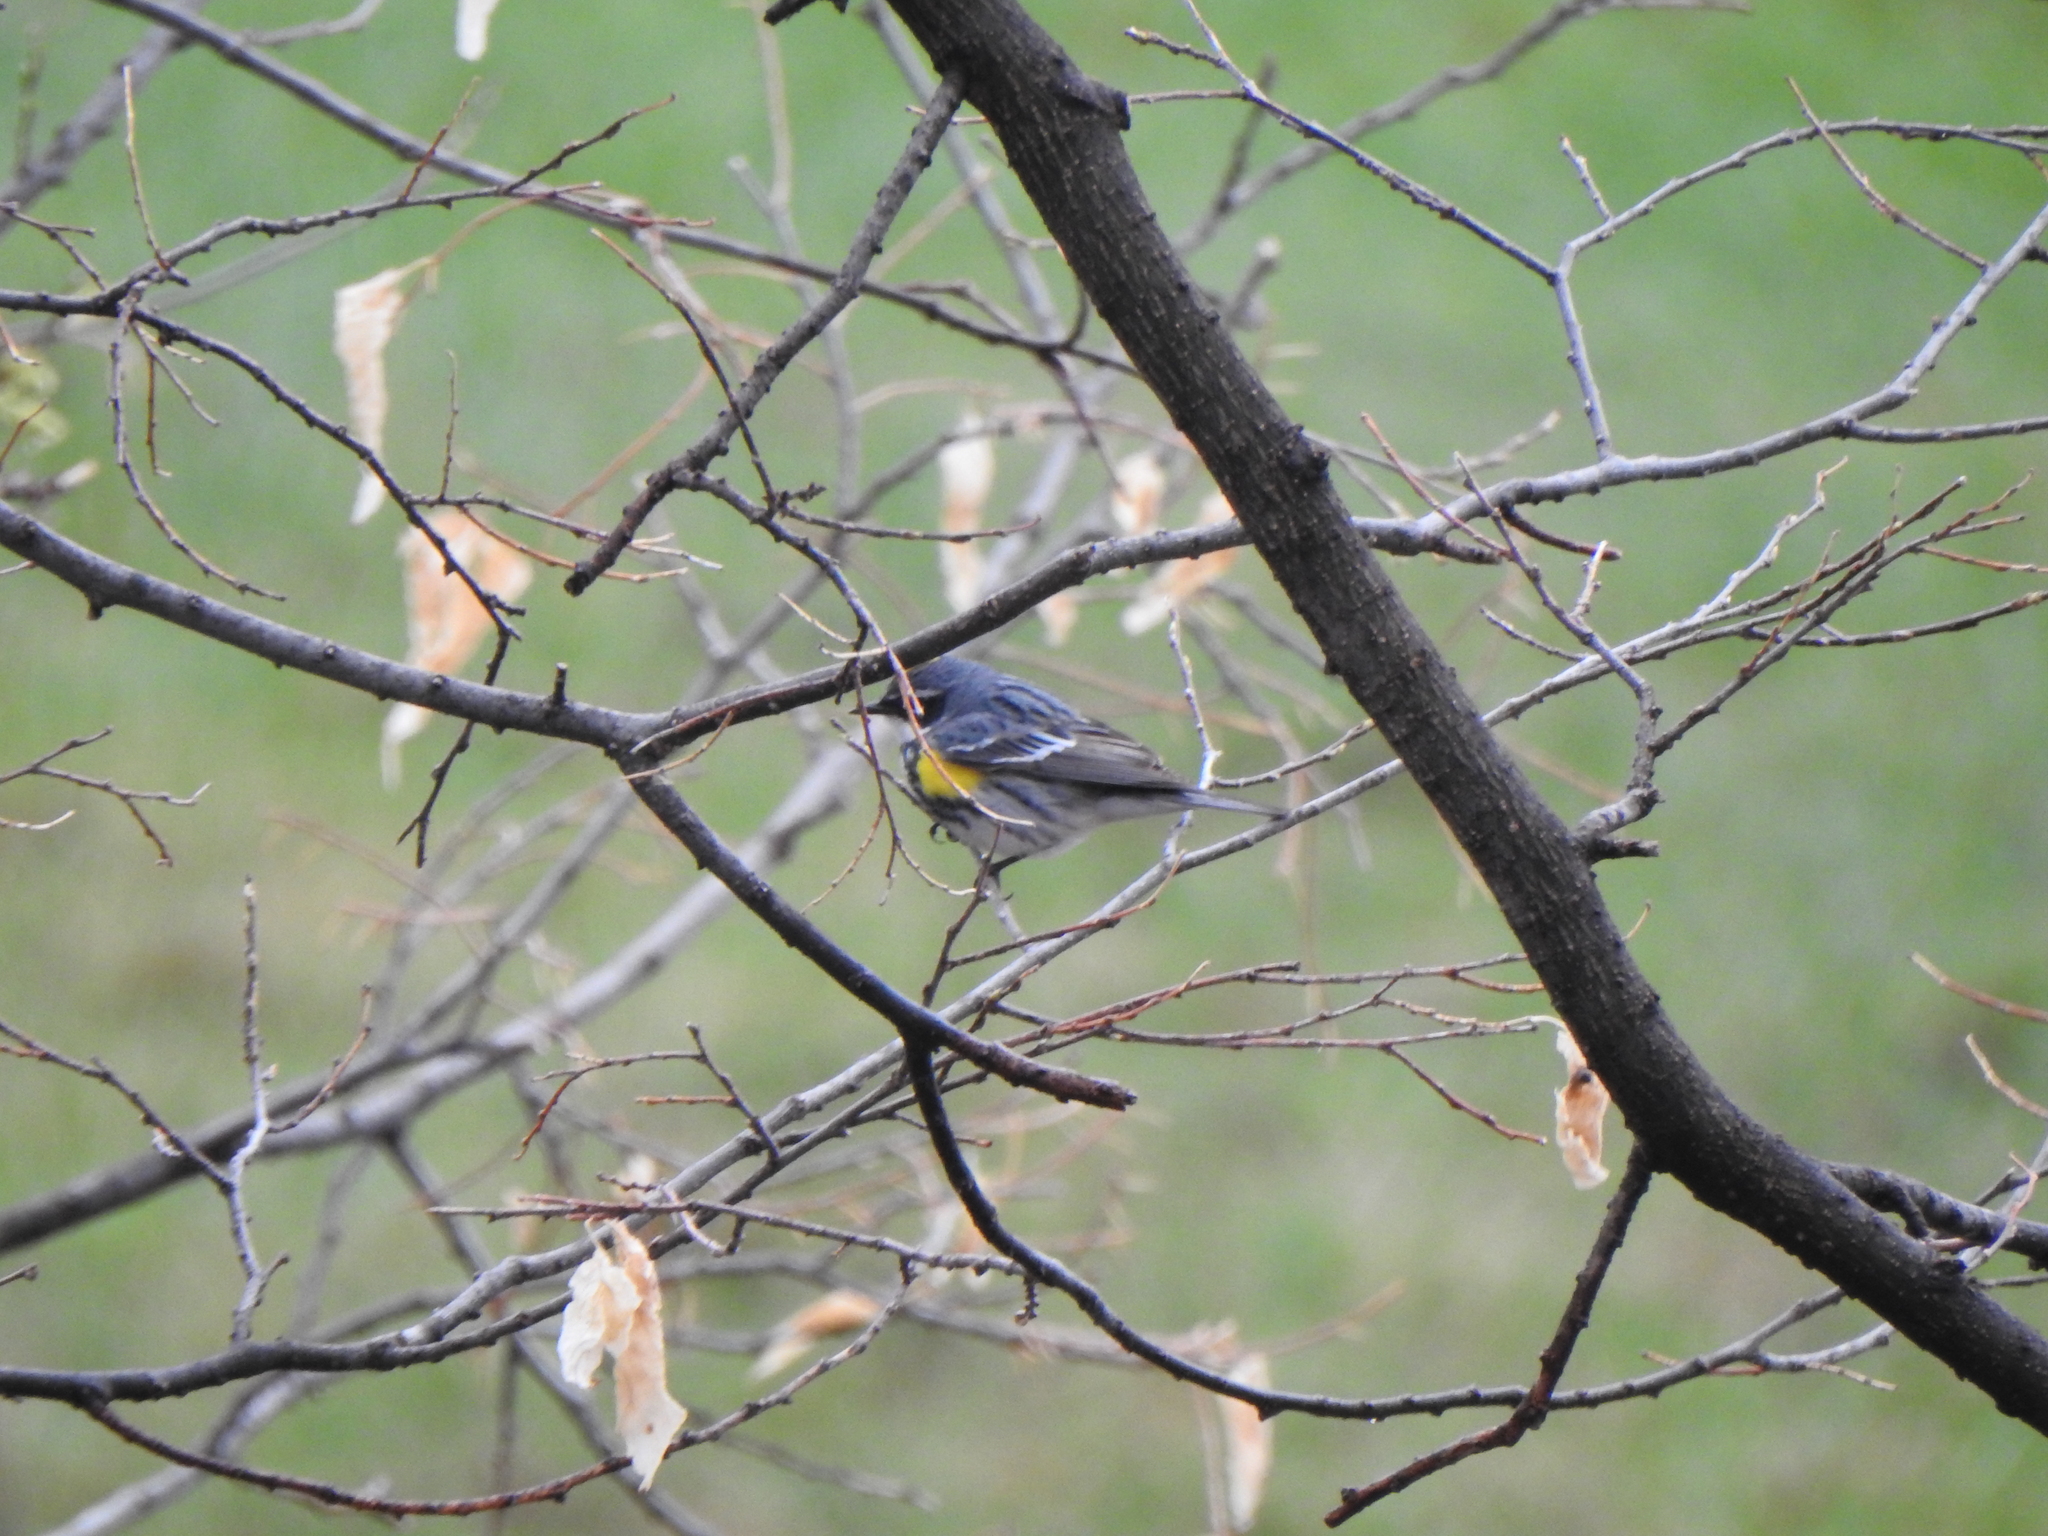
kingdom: Animalia
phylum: Chordata
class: Aves
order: Passeriformes
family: Parulidae
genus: Setophaga
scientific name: Setophaga coronata
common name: Myrtle warbler
